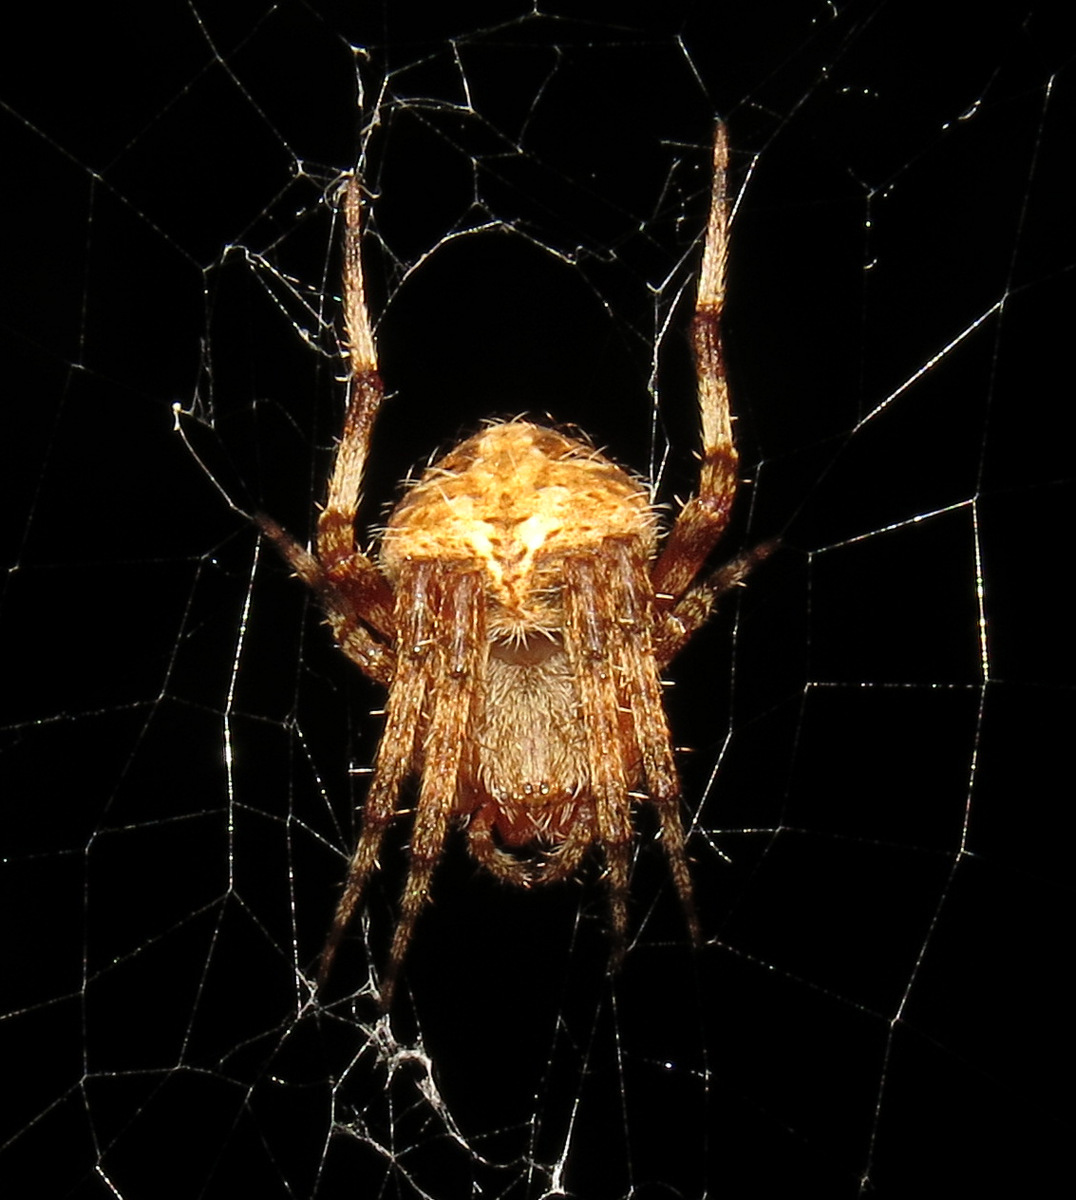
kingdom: Animalia
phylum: Arthropoda
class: Arachnida
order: Araneae
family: Araneidae
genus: Neoscona
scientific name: Neoscona crucifera
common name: Spotted orbweaver
